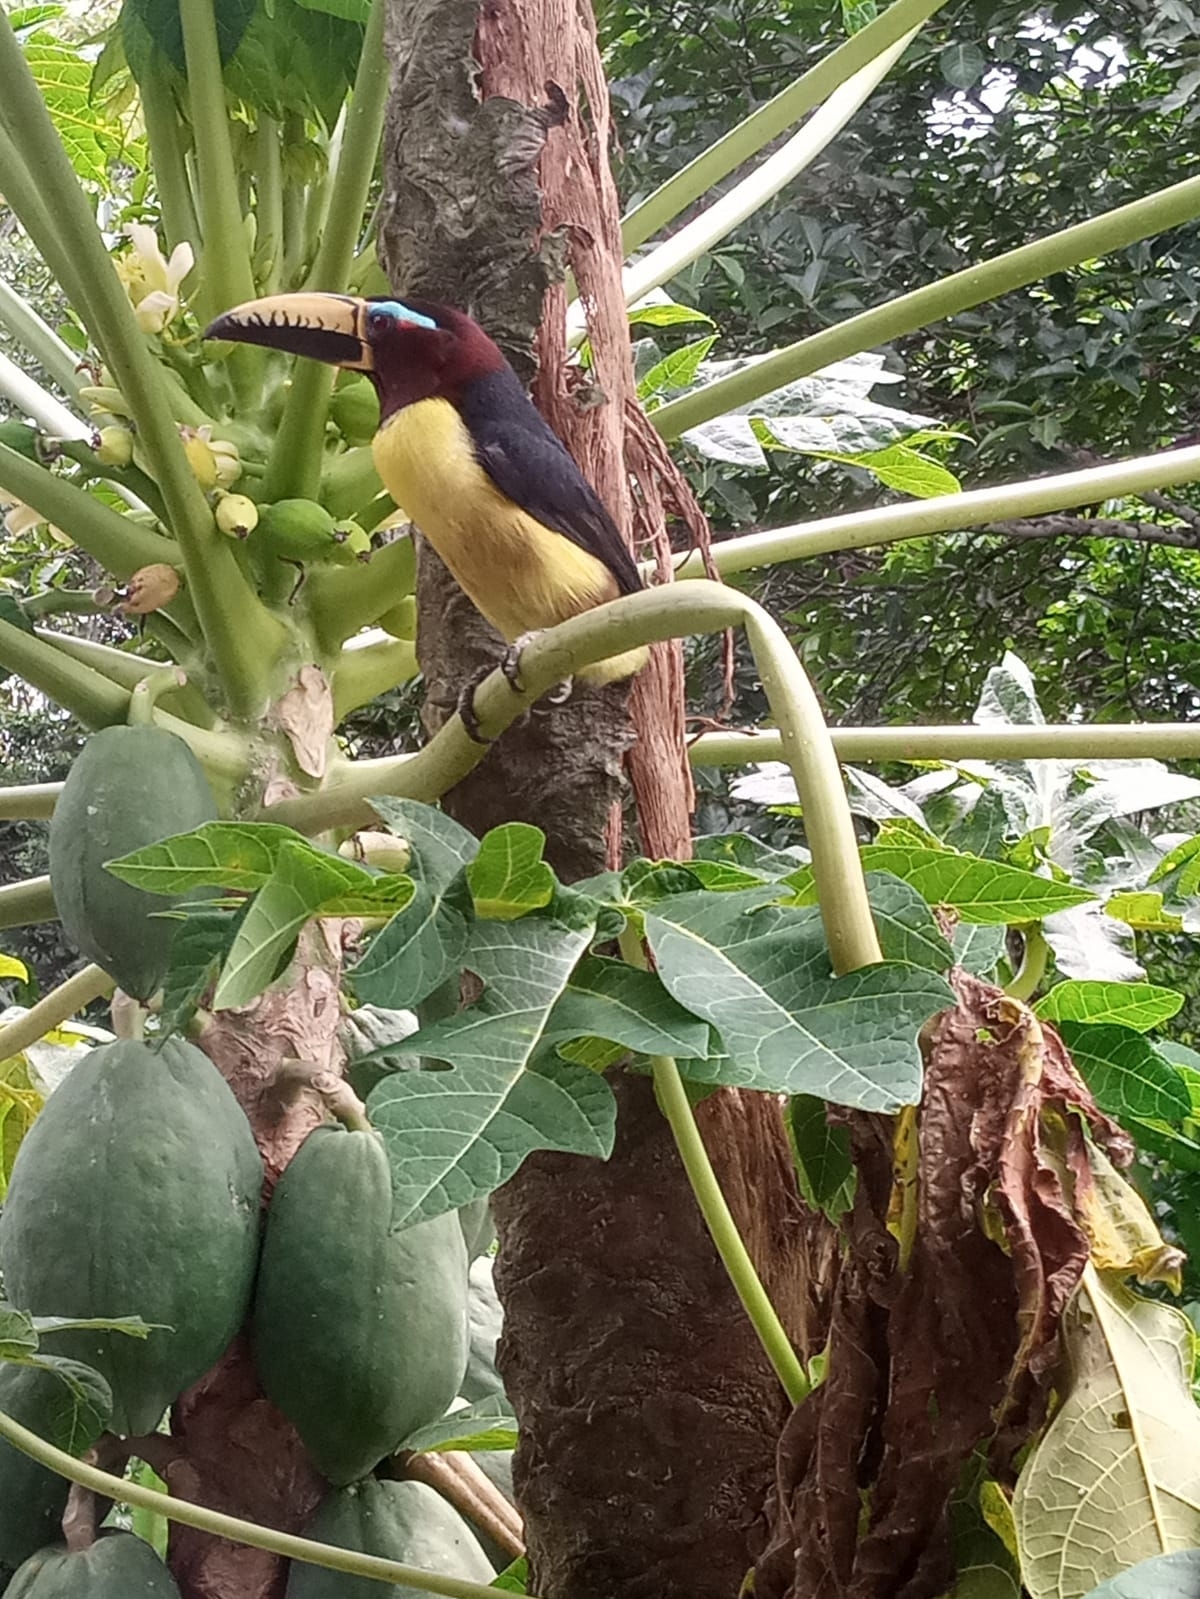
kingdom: Animalia
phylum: Chordata
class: Aves
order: Piciformes
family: Ramphastidae
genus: Pteroglossus
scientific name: Pteroglossus inscriptus
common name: Lettered aracari
